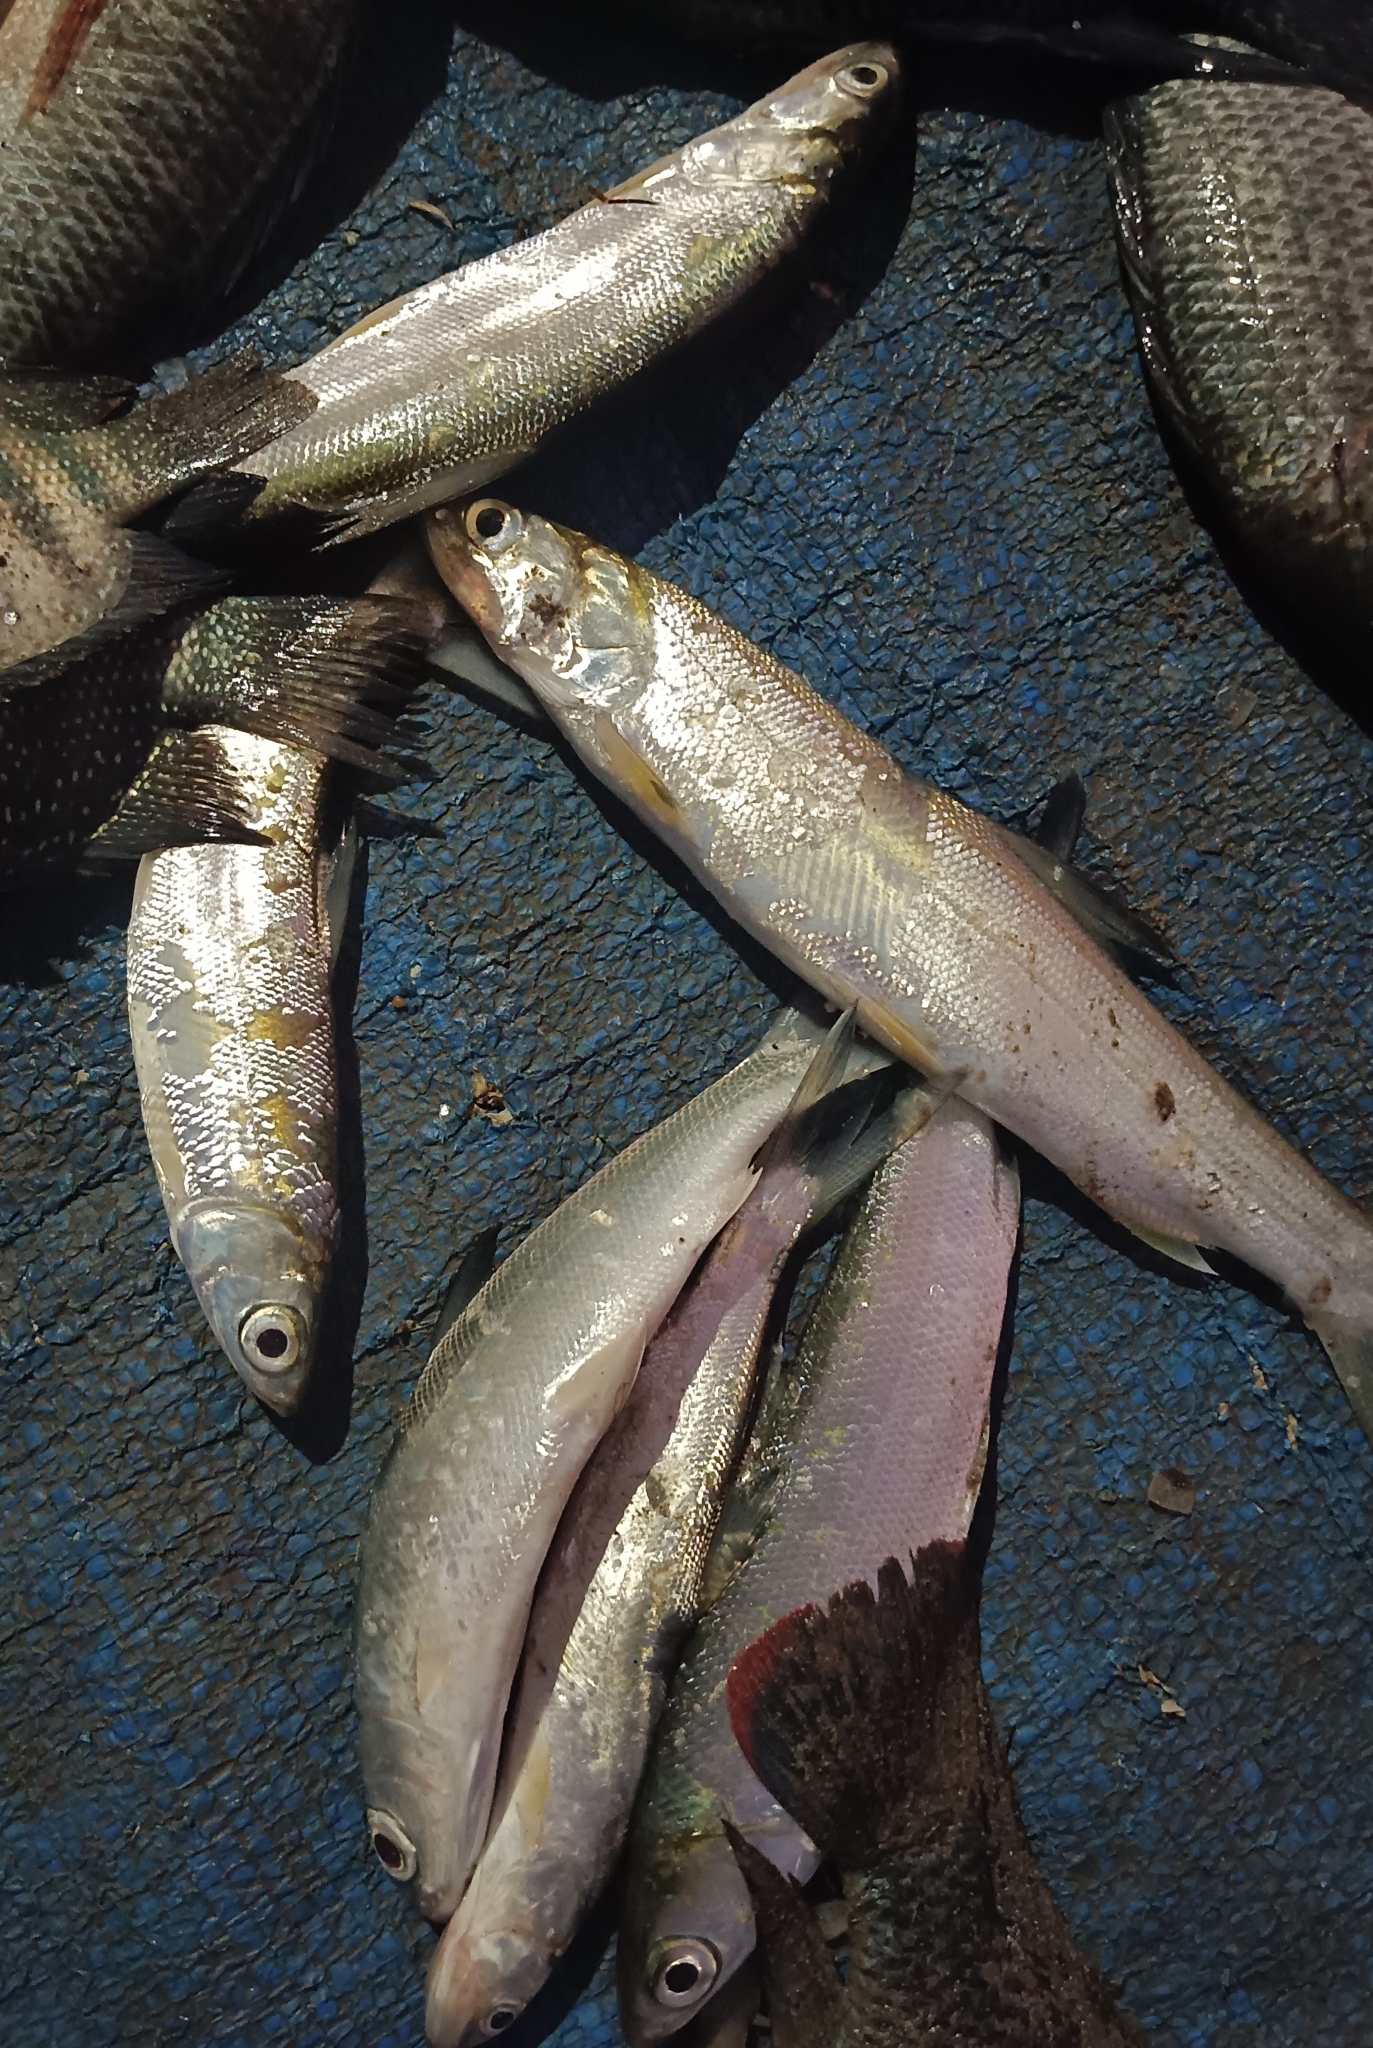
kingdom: Animalia
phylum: Chordata
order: Gonorynchiformes
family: Chanidae
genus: Chanos
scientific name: Chanos chanos
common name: Milkfish
